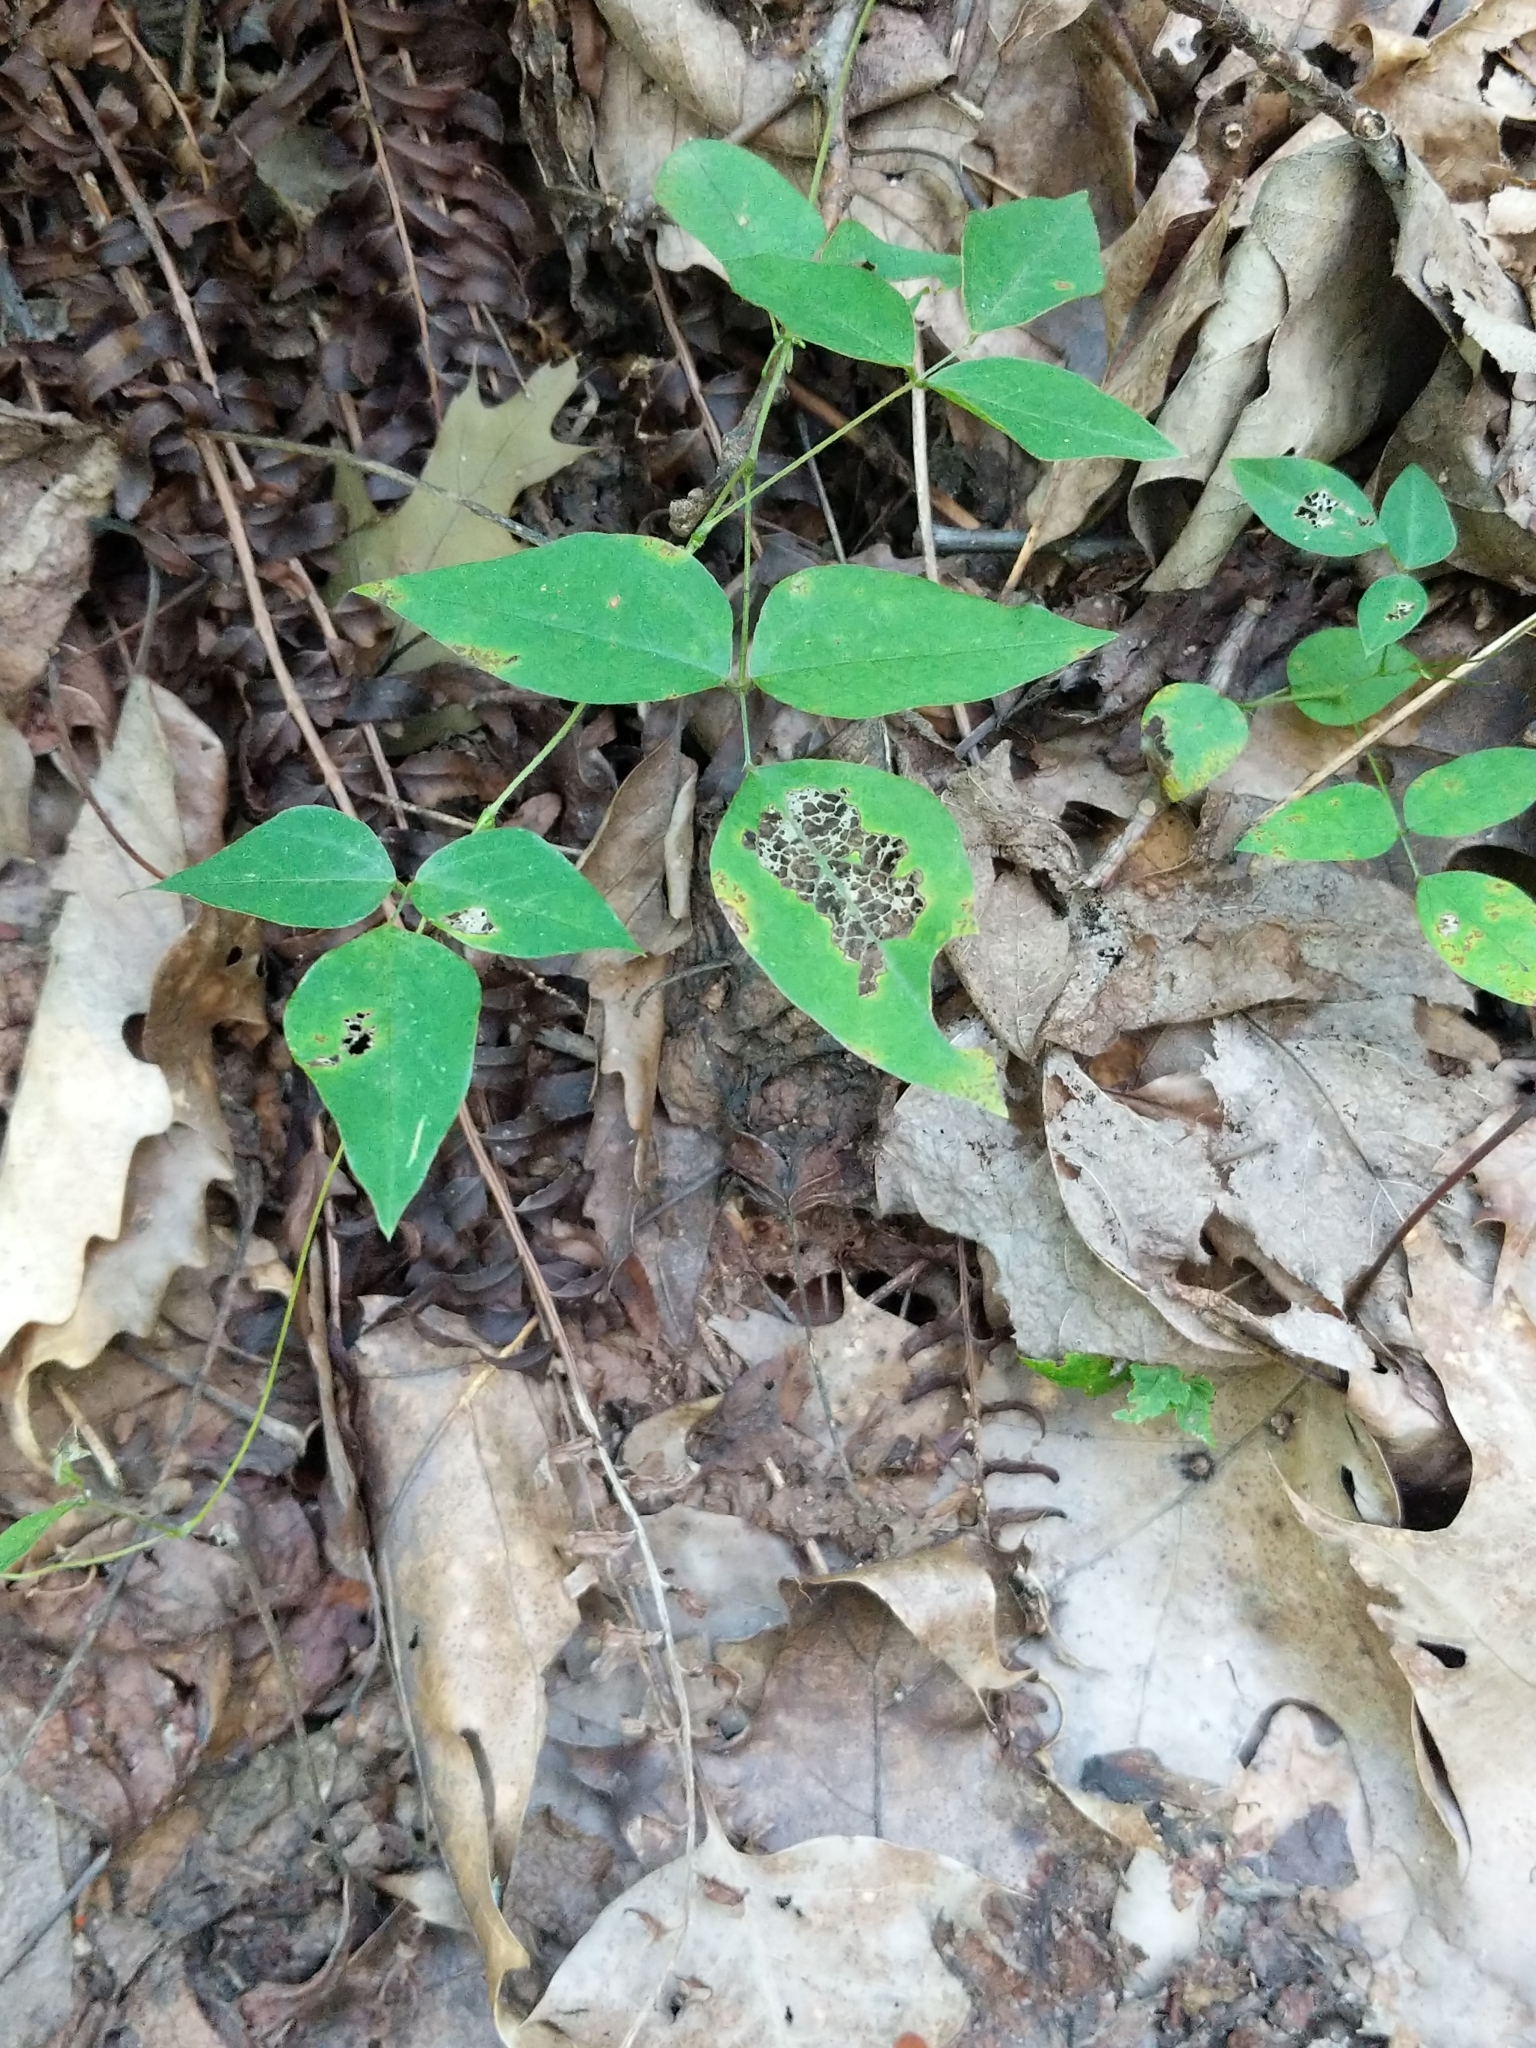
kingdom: Plantae
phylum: Tracheophyta
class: Magnoliopsida
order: Fabales
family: Fabaceae
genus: Amphicarpaea
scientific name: Amphicarpaea bracteata
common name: American hog peanut
